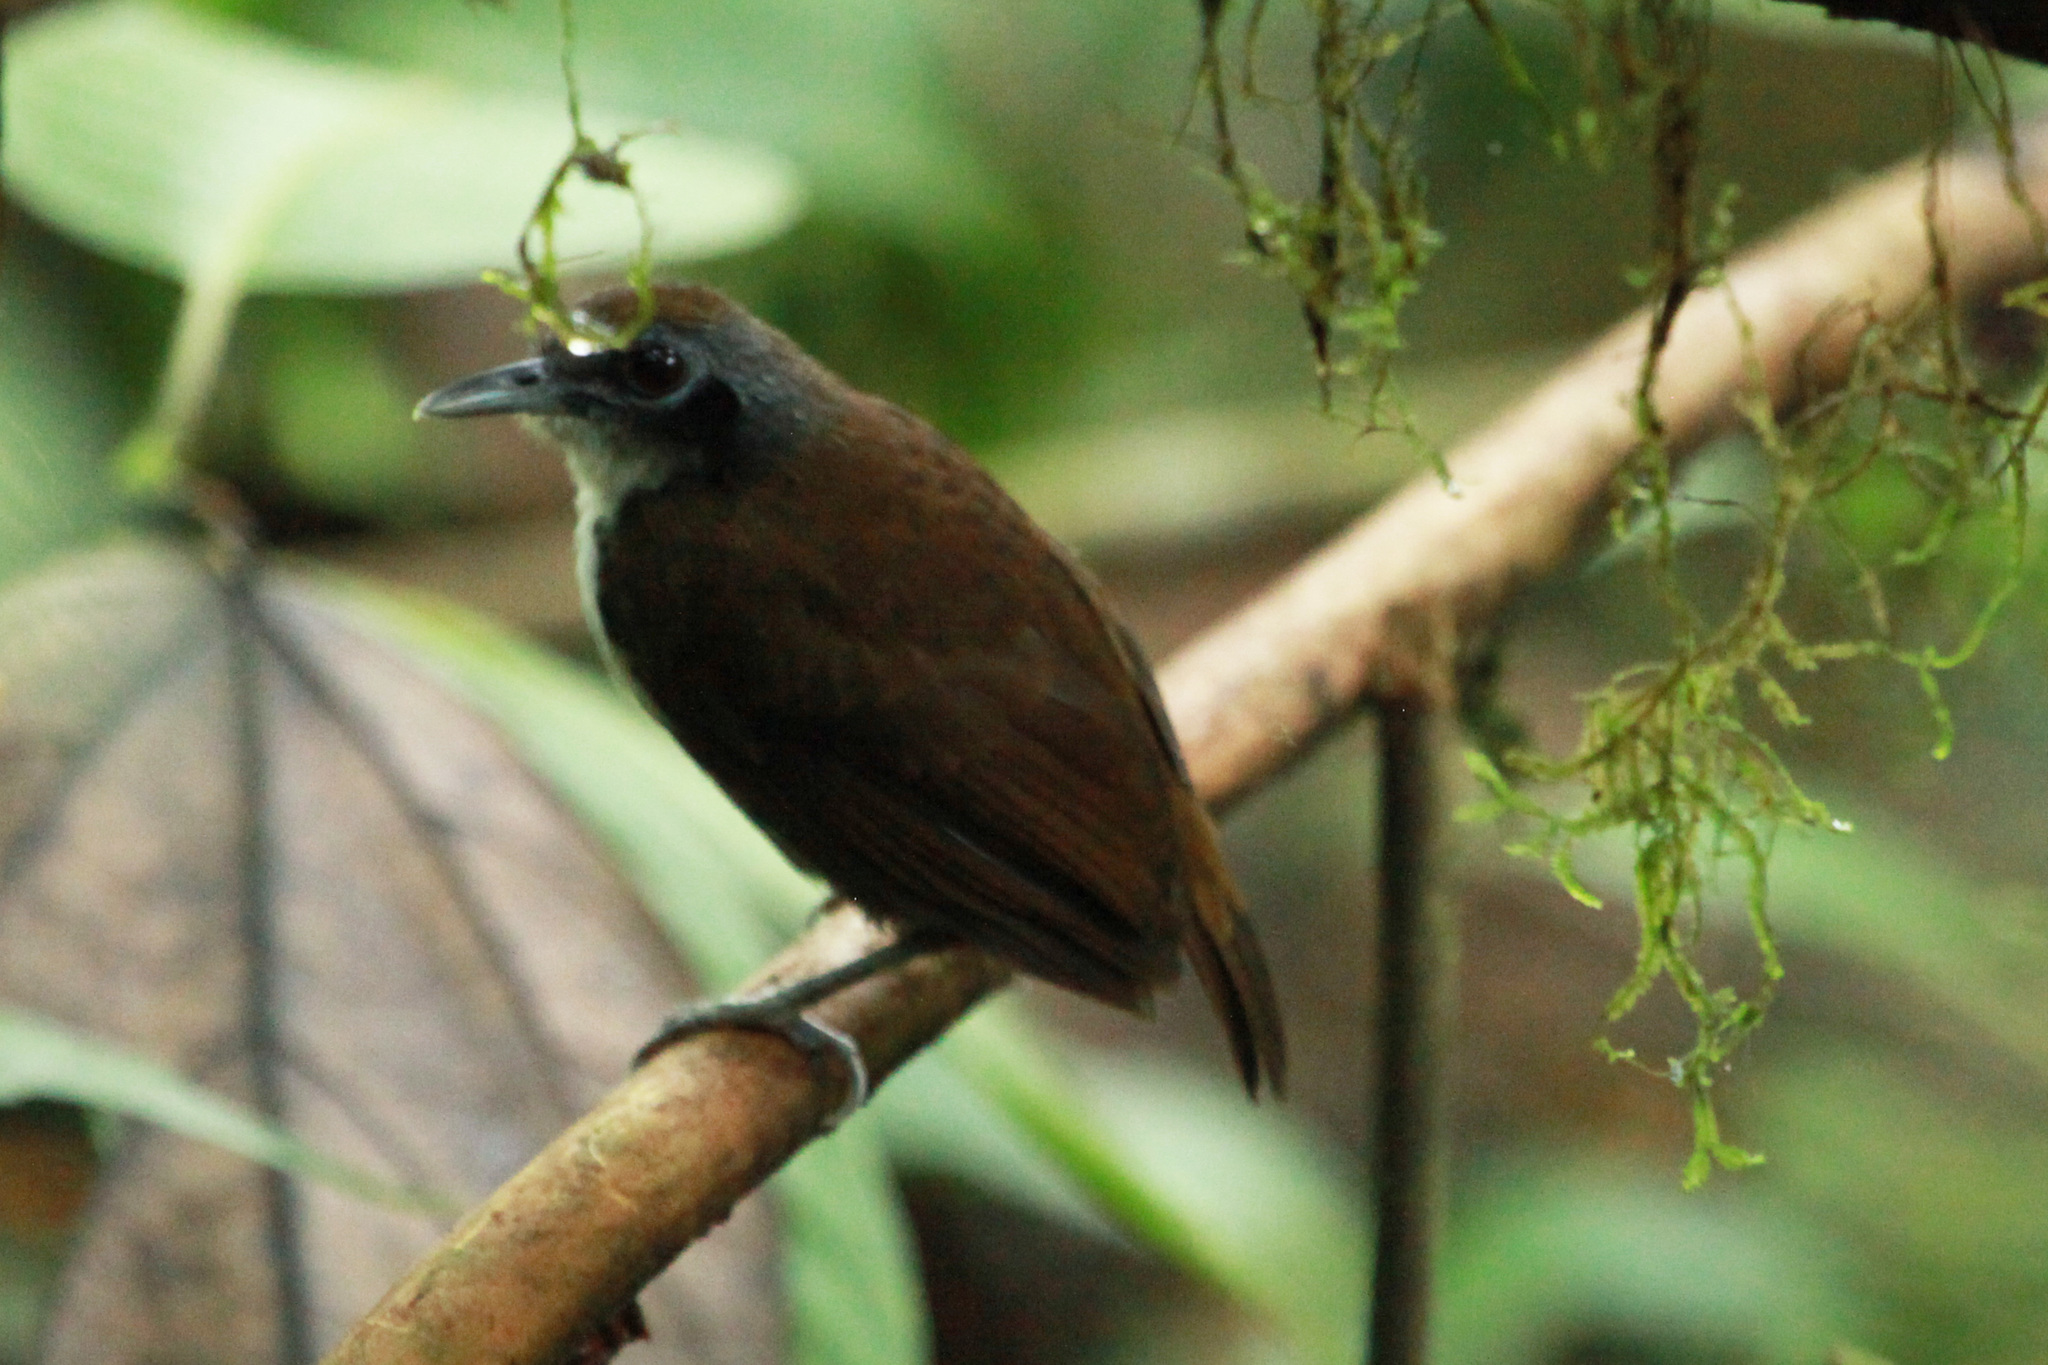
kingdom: Animalia
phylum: Chordata
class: Aves
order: Passeriformes
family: Thamnophilidae
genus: Gymnopithys
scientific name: Gymnopithys leucaspis
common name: White-cheeked antbird
